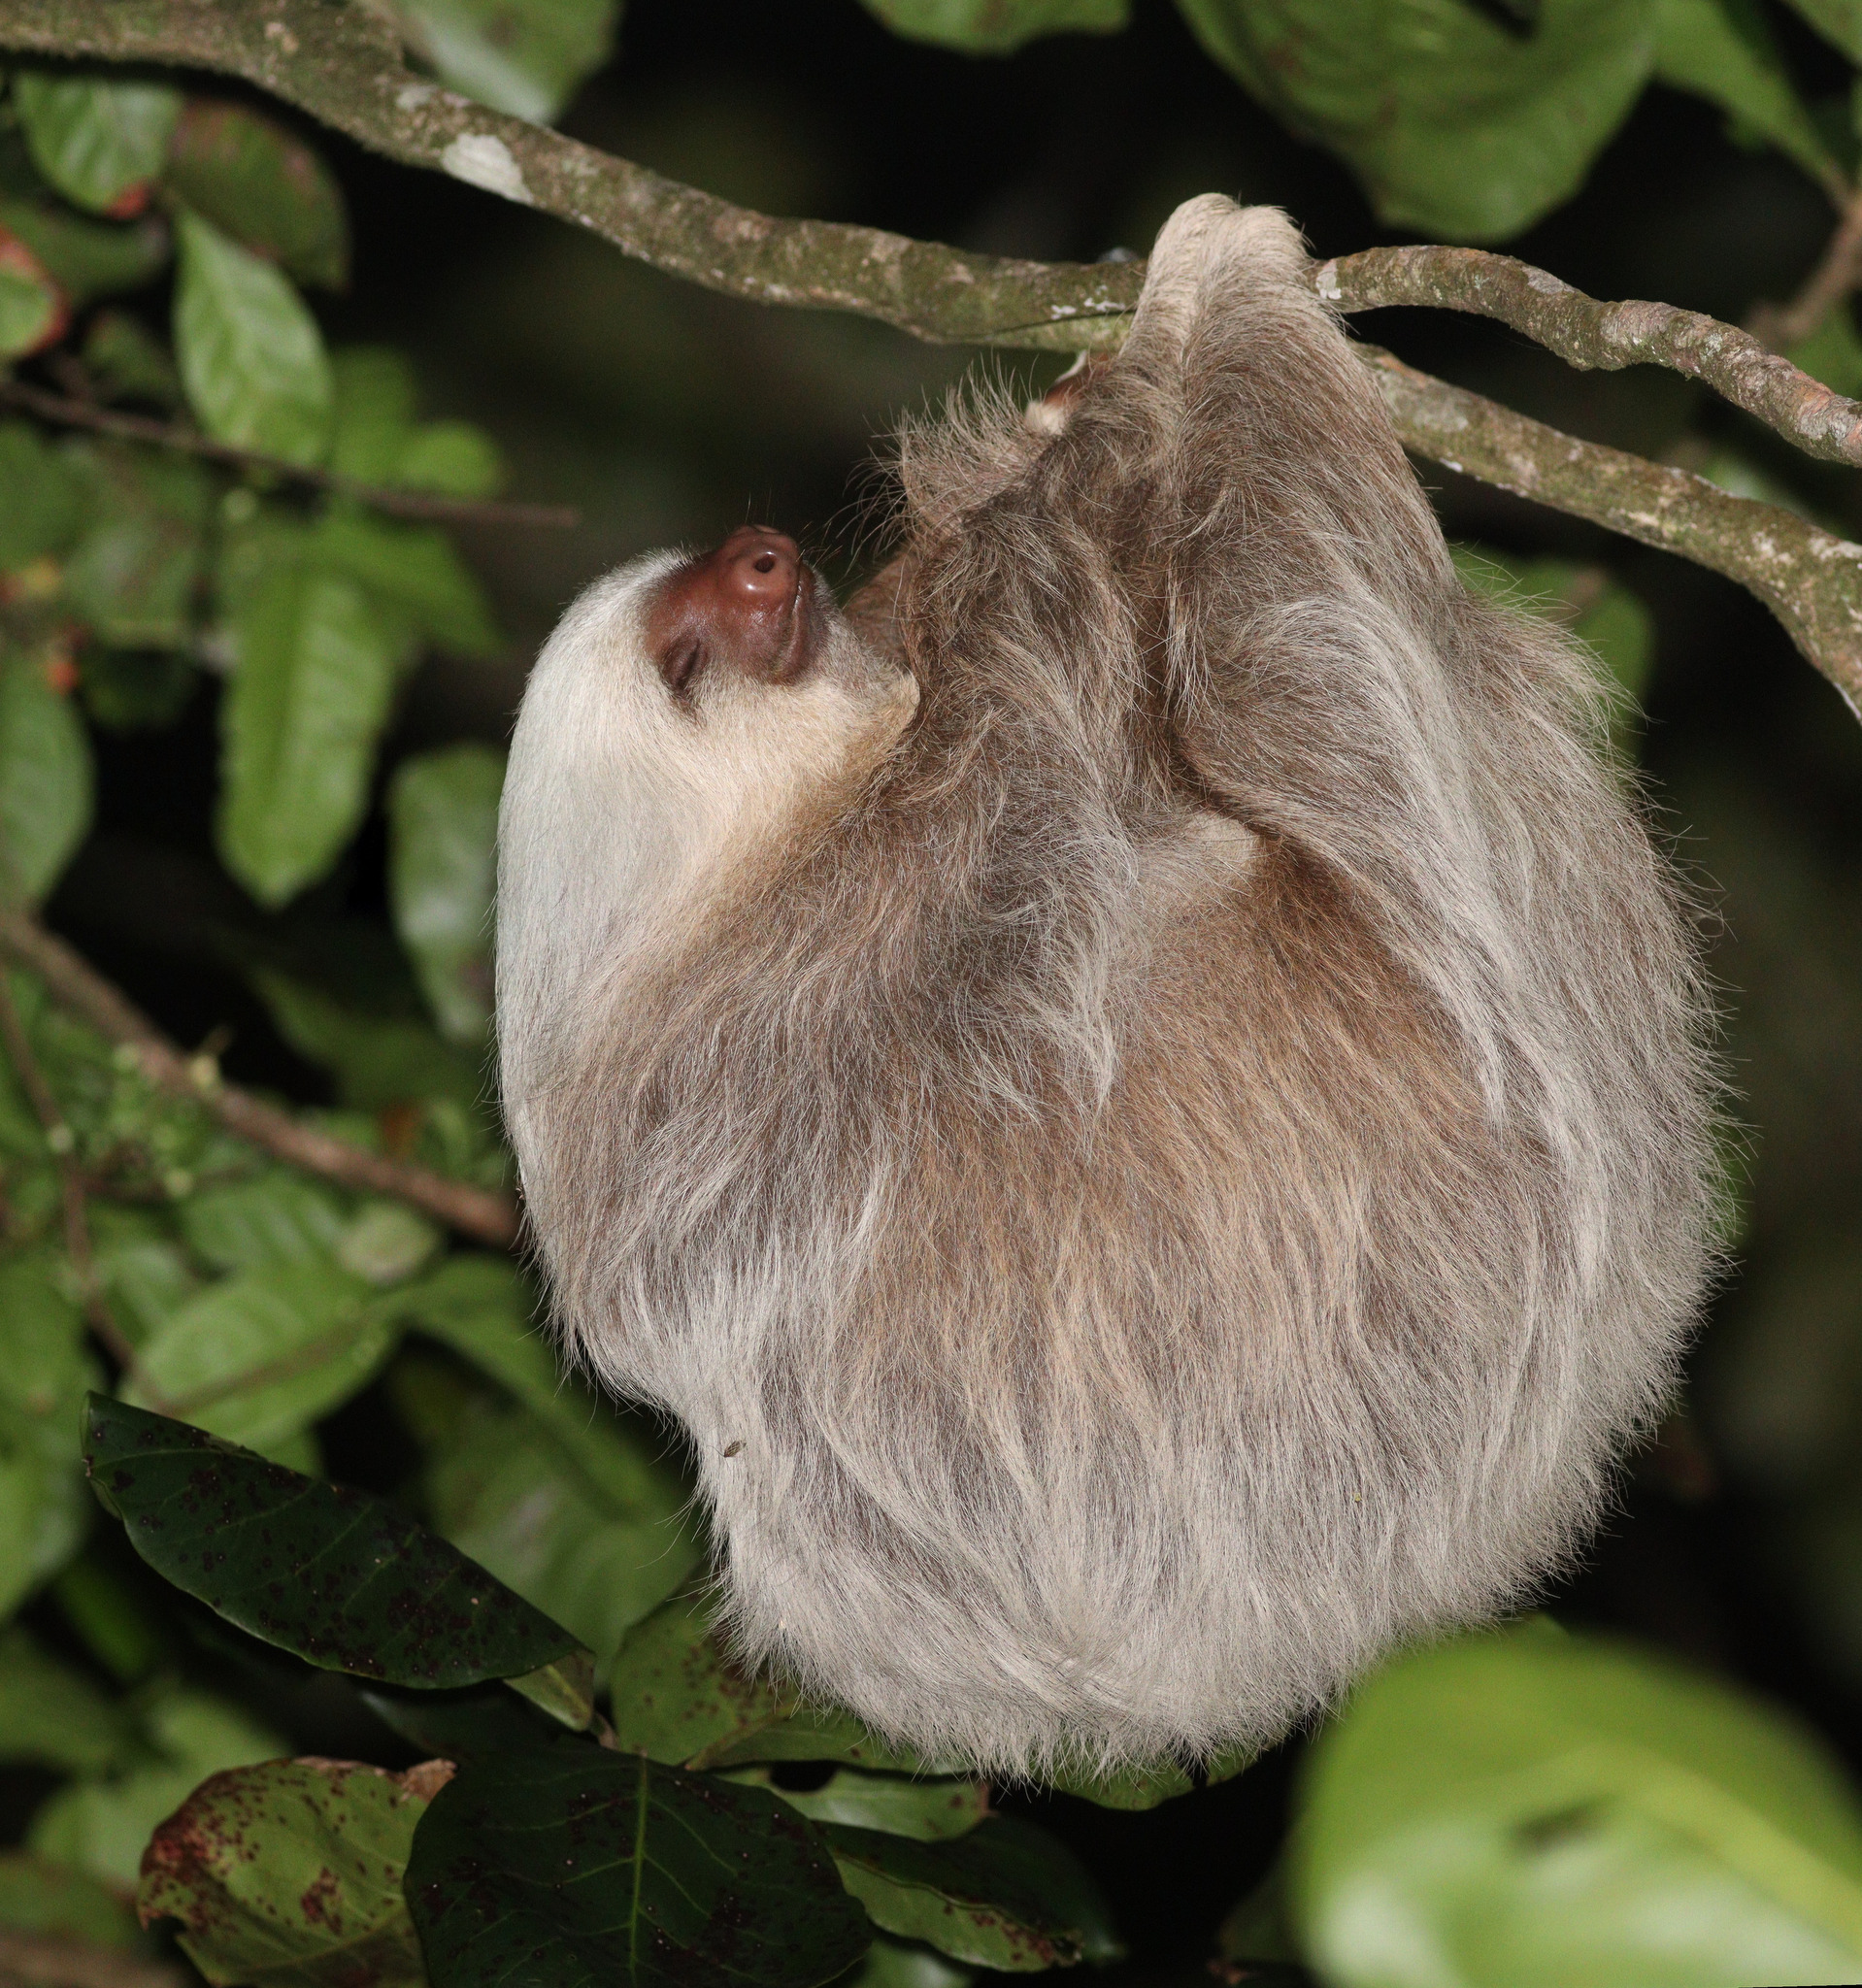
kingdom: Animalia
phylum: Chordata
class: Mammalia
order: Pilosa
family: Megalonychidae
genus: Choloepus
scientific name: Choloepus hoffmanni
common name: Hoffmann's two-toed sloth
